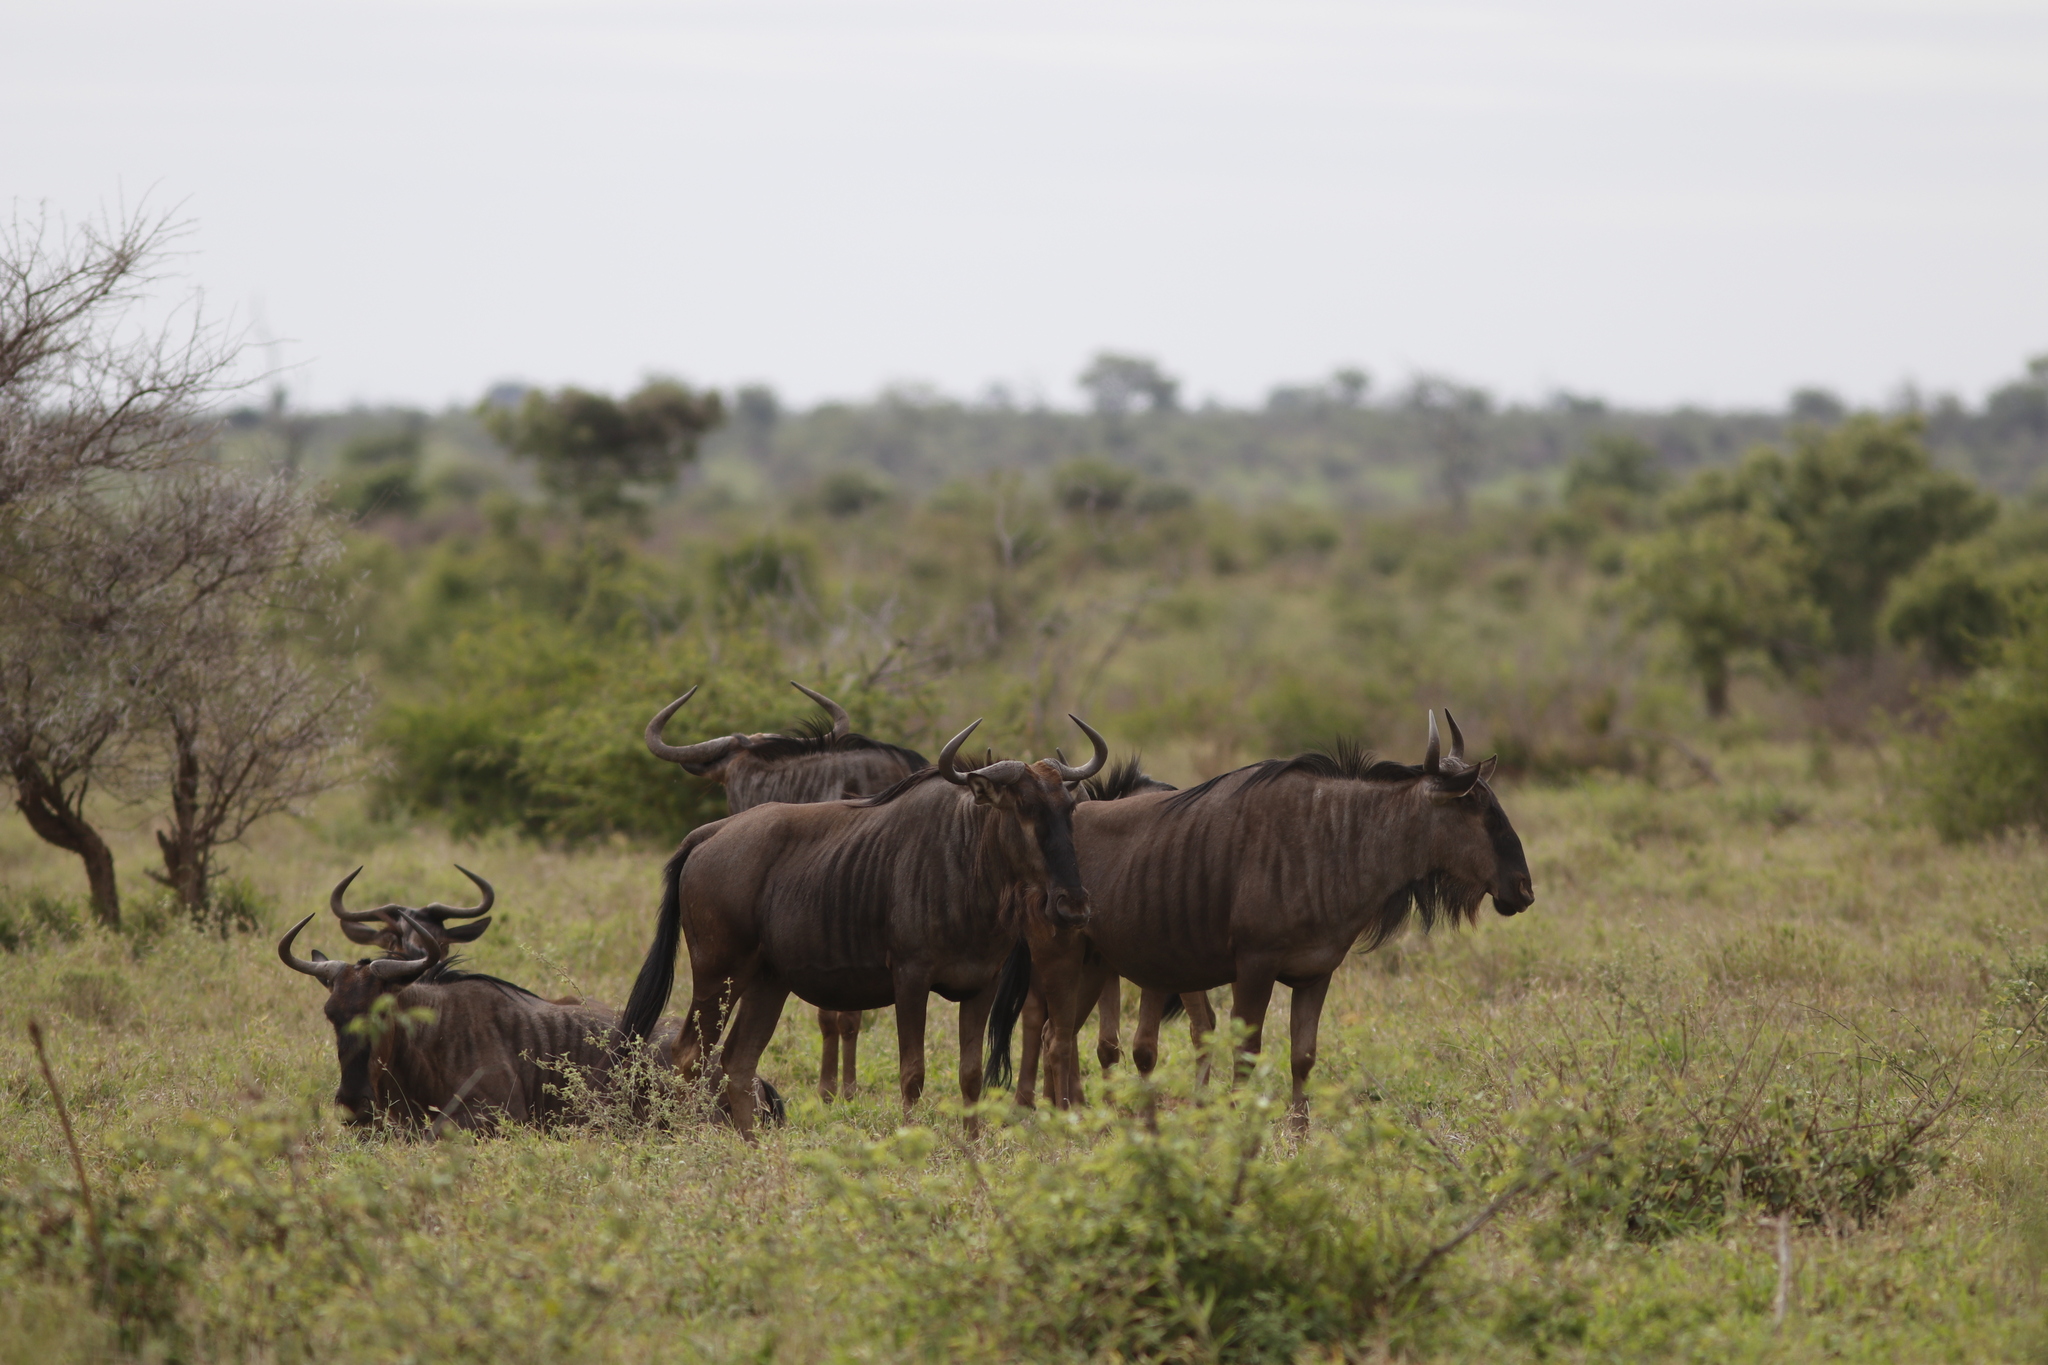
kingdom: Animalia
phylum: Chordata
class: Mammalia
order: Artiodactyla
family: Bovidae
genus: Connochaetes
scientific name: Connochaetes taurinus
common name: Blue wildebeest
